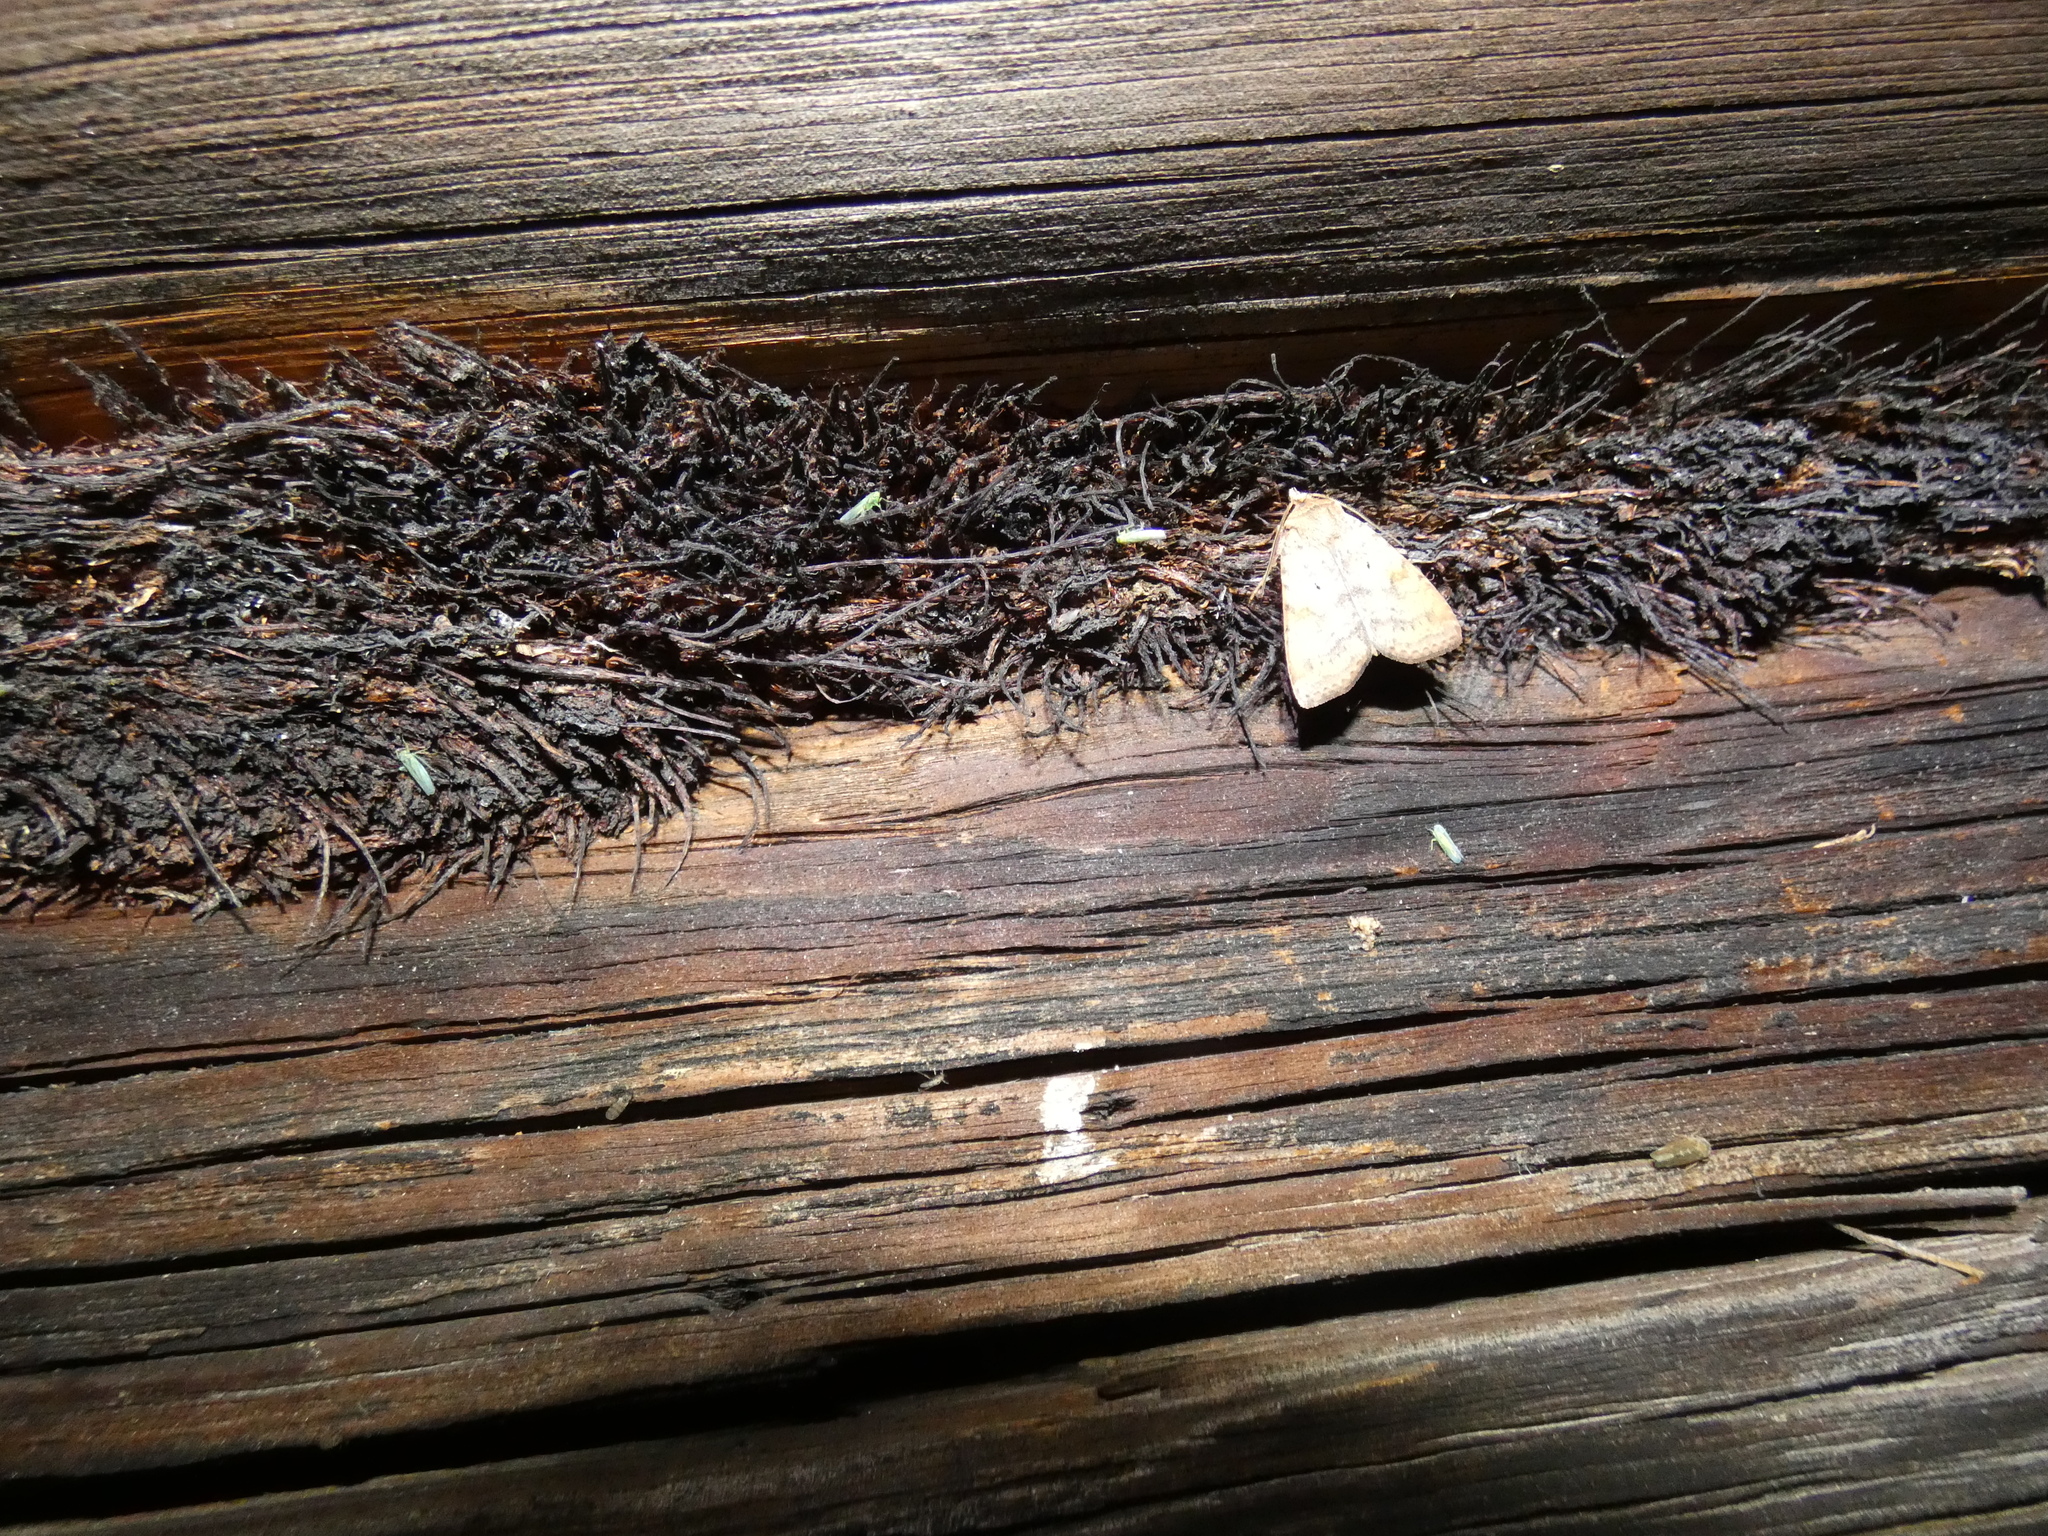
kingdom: Animalia
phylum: Arthropoda
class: Insecta
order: Lepidoptera
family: Noctuidae
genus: Diarsia
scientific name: Diarsia dahlii
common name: Barred chestnut
